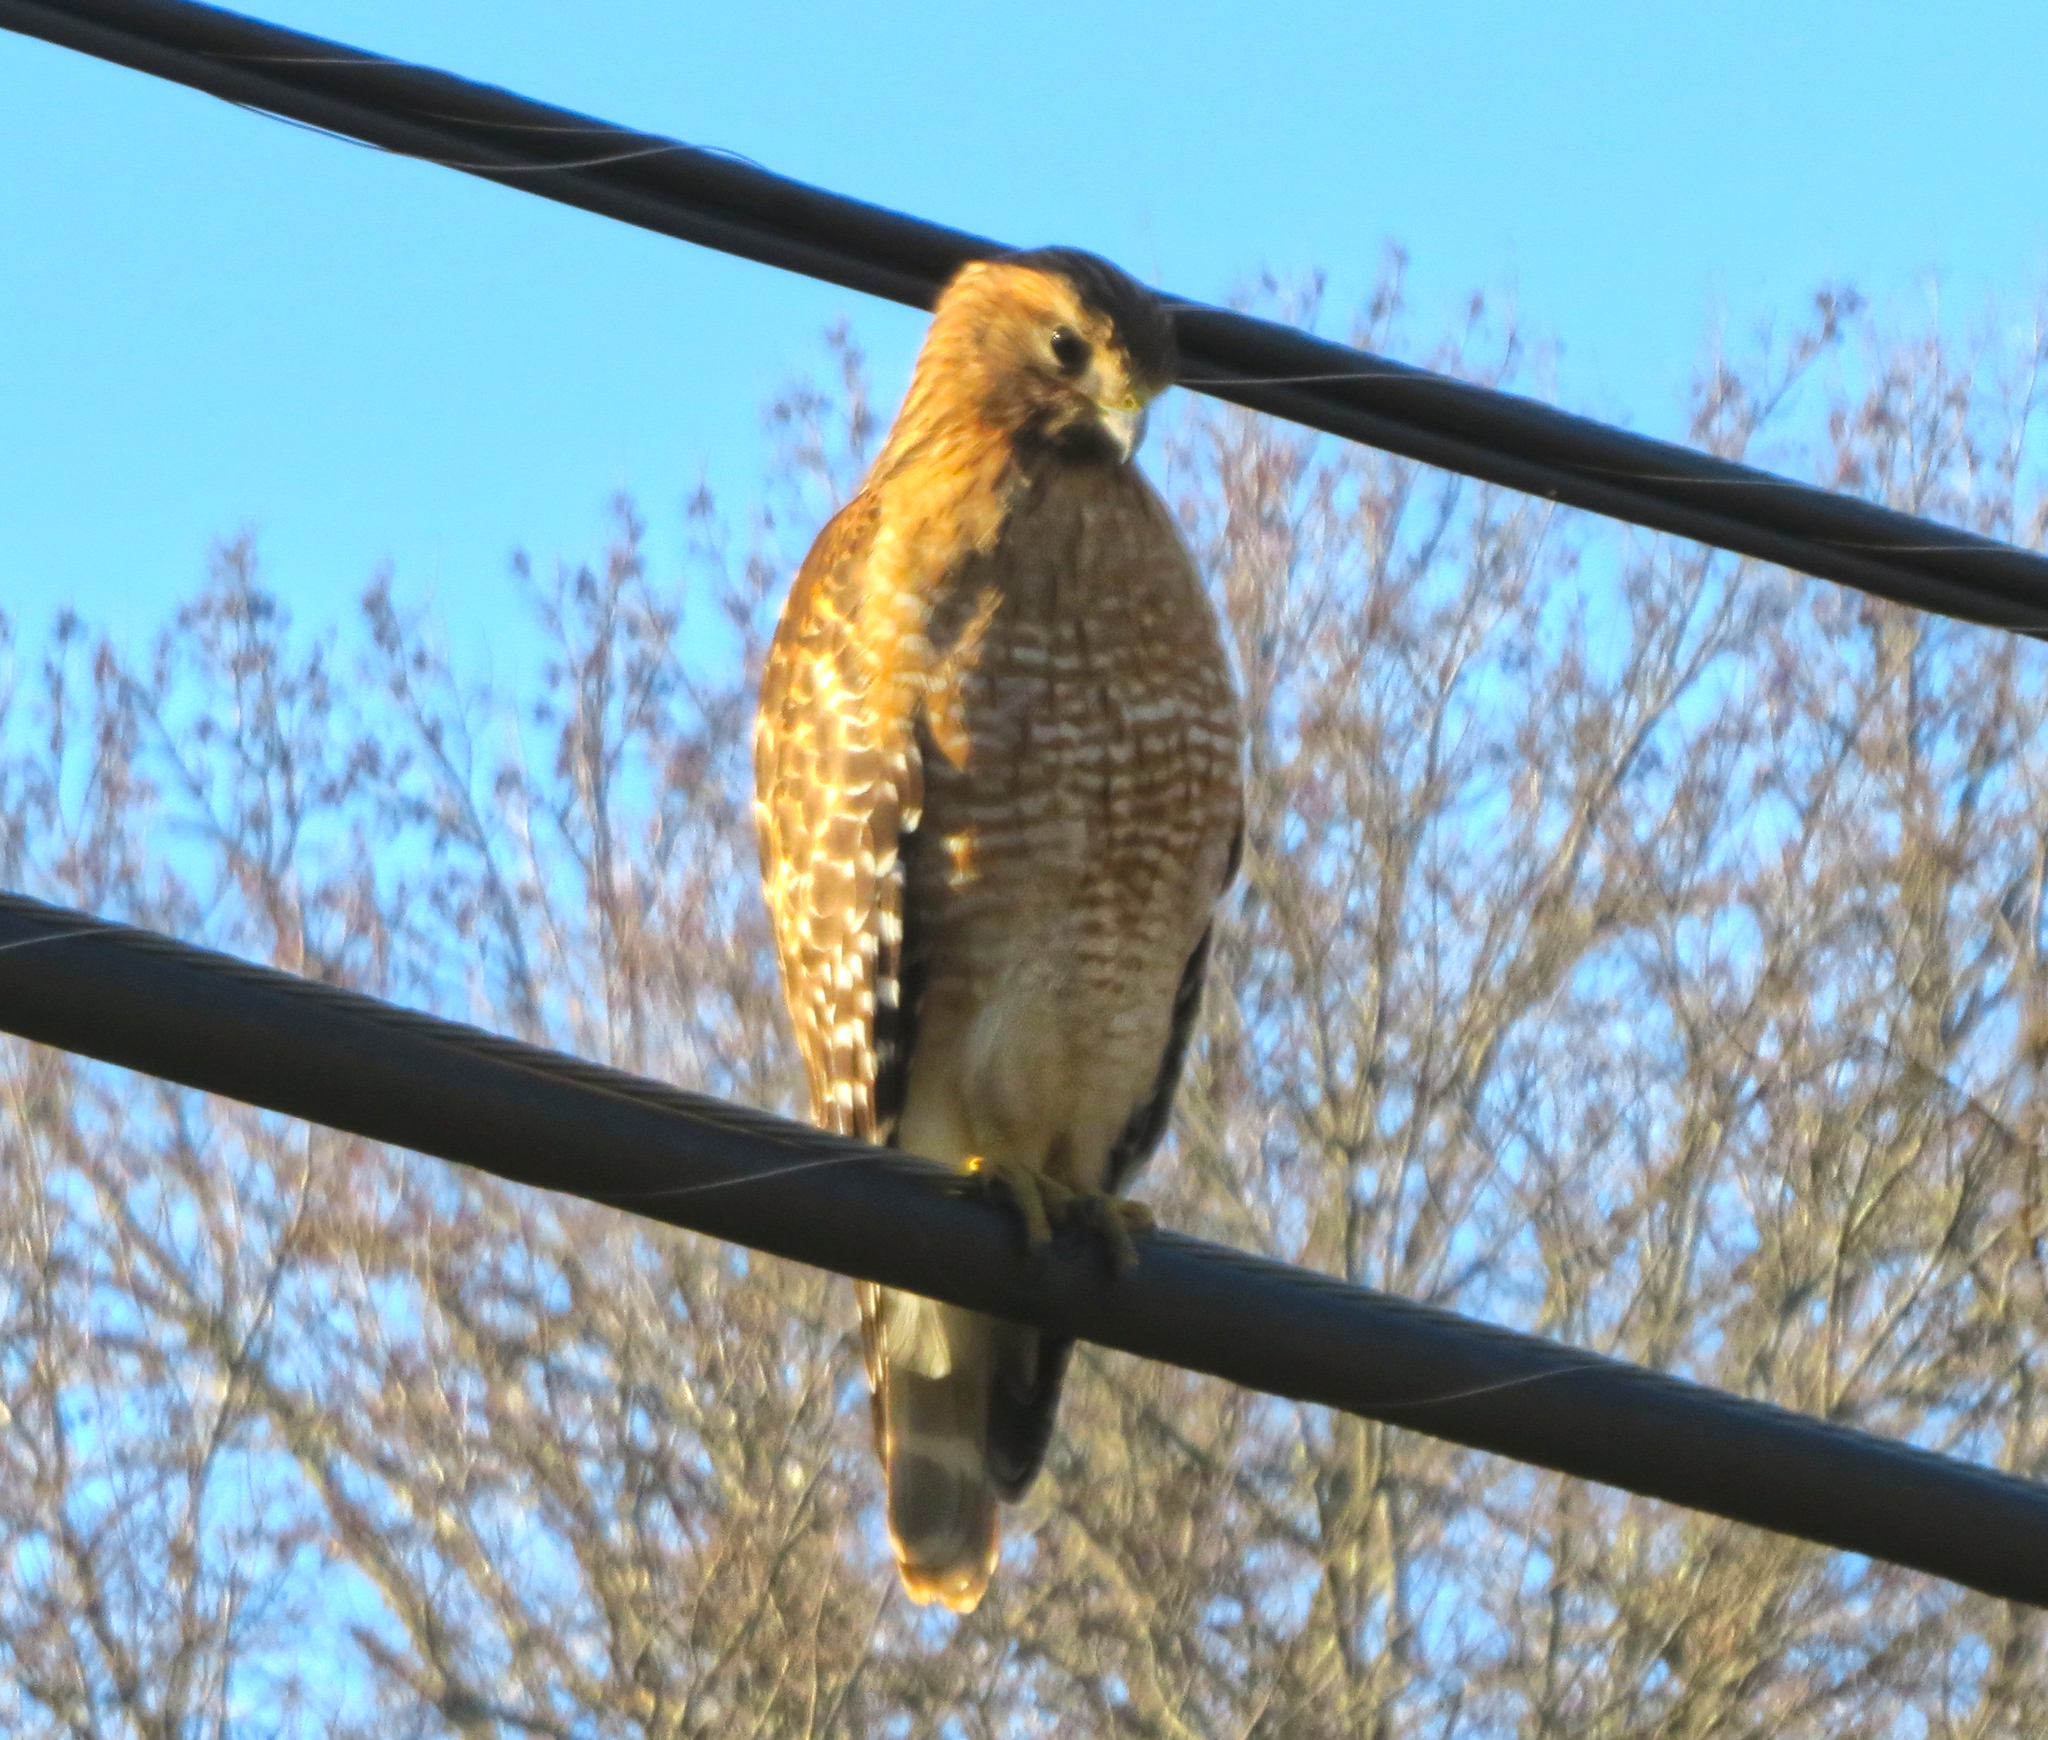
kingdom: Animalia
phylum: Chordata
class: Aves
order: Accipitriformes
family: Accipitridae
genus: Buteo
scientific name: Buteo lineatus
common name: Red-shouldered hawk
